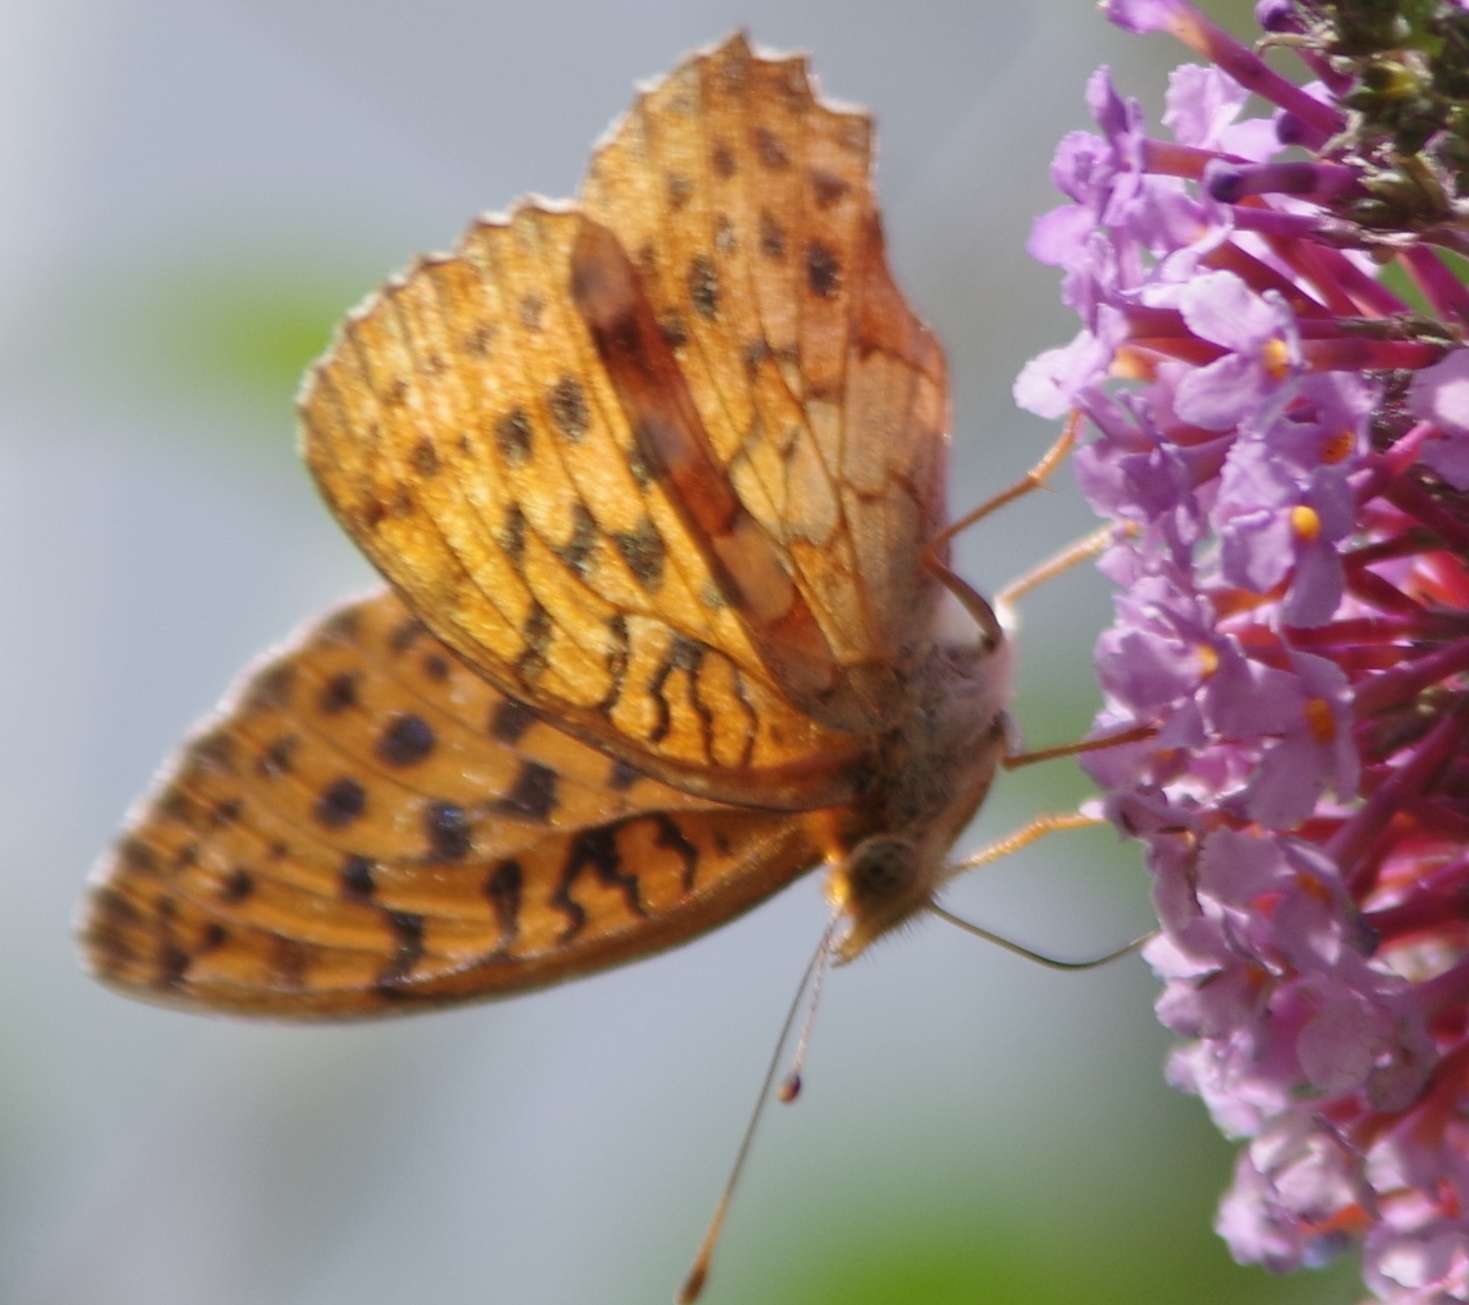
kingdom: Animalia
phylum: Arthropoda
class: Insecta
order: Lepidoptera
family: Nymphalidae
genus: Brenthis
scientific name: Brenthis daphne
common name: Marbled fritillary
